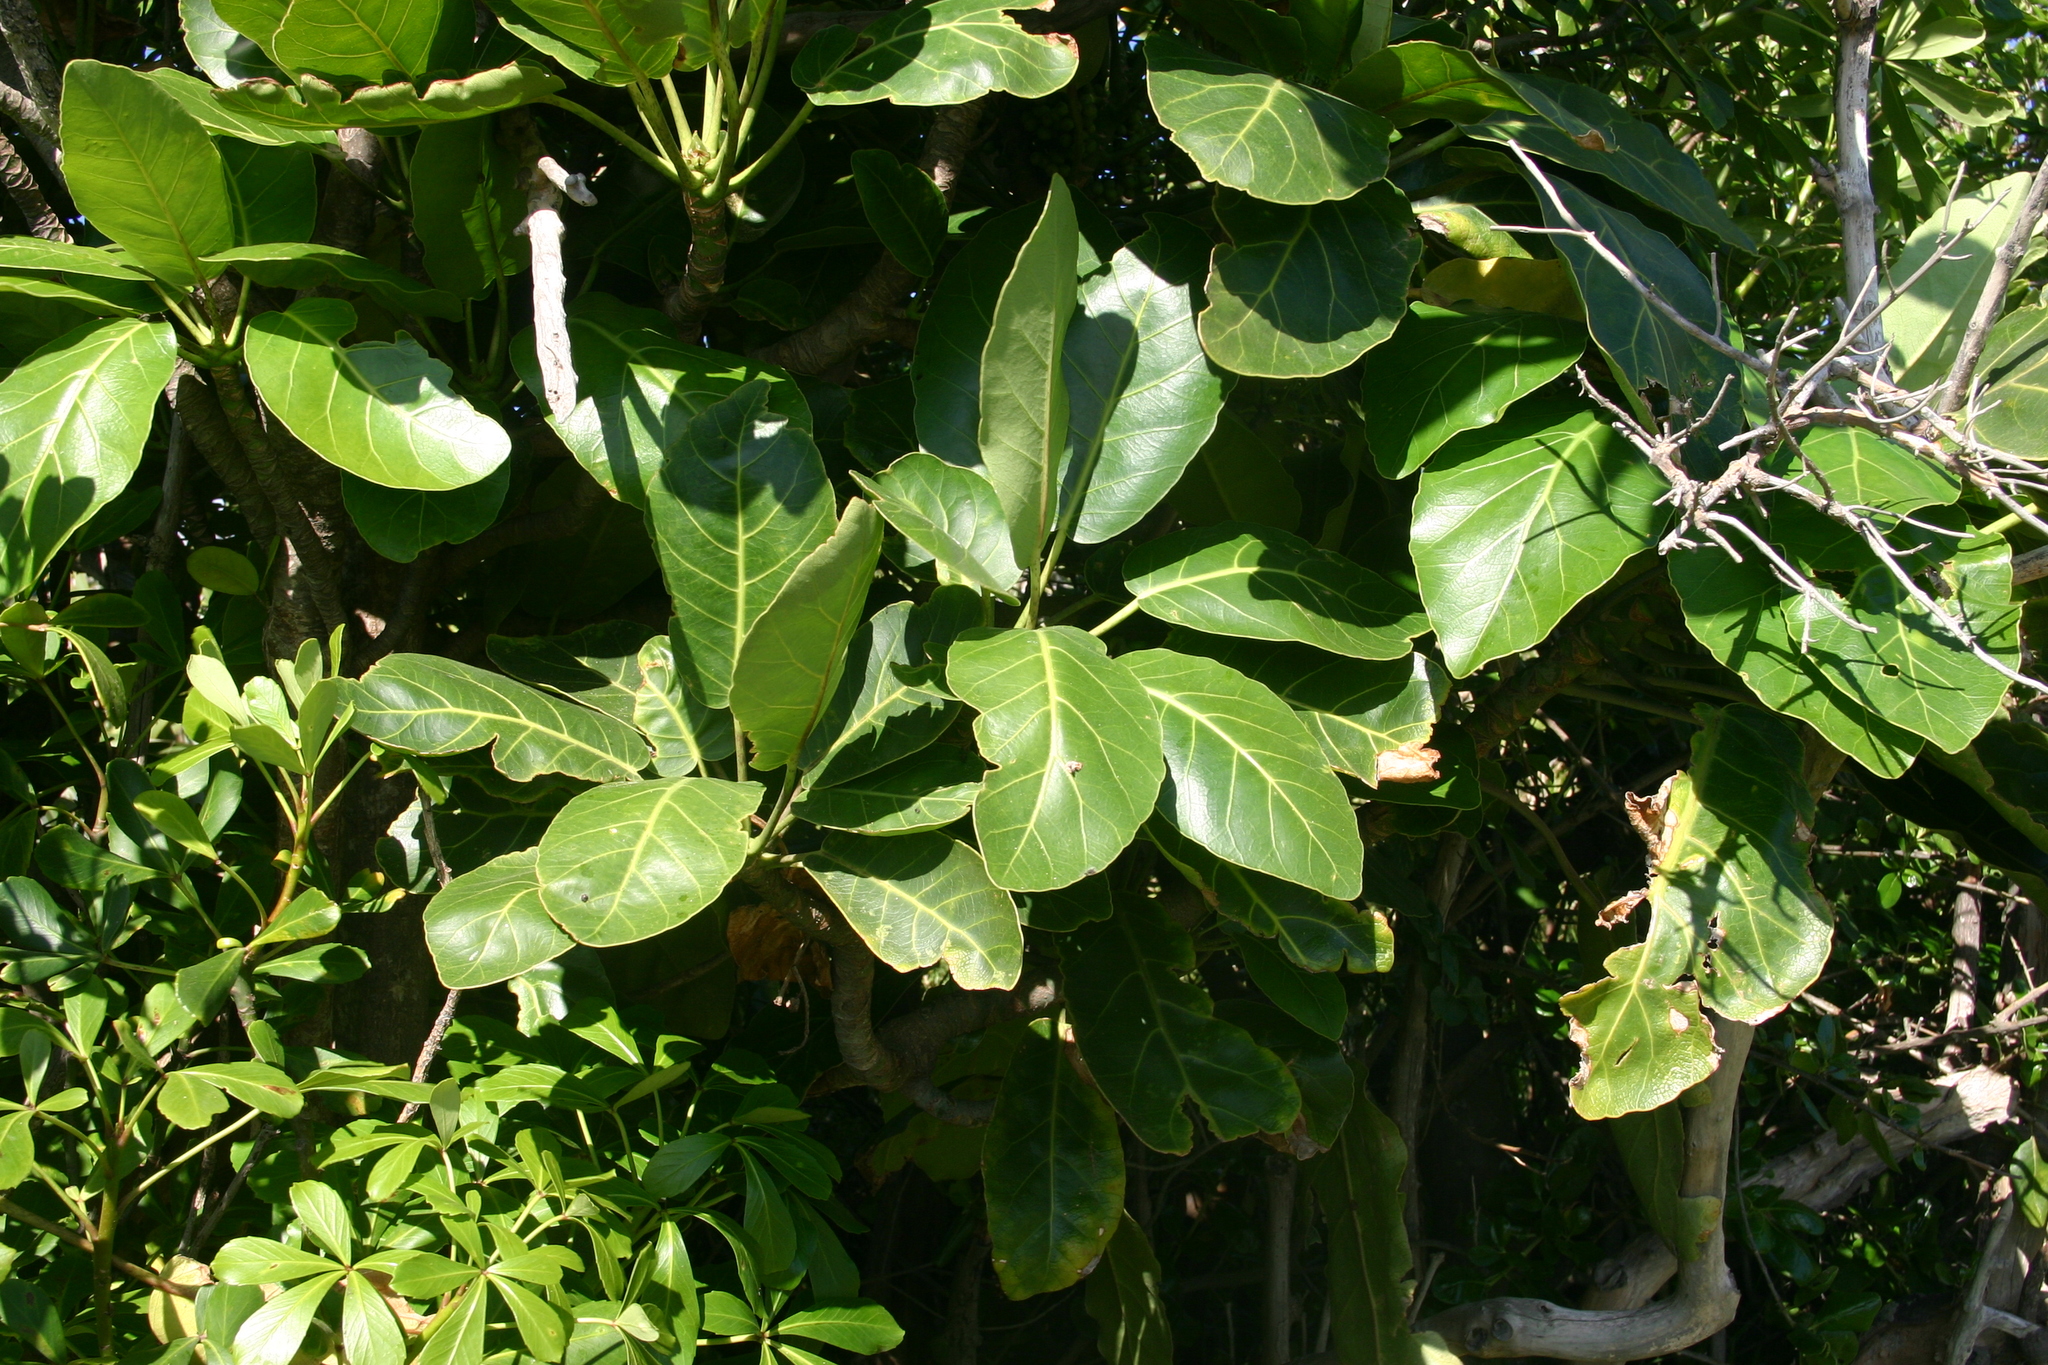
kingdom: Plantae
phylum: Tracheophyta
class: Magnoliopsida
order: Apiales
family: Araliaceae
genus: Meryta
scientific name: Meryta sinclairii
